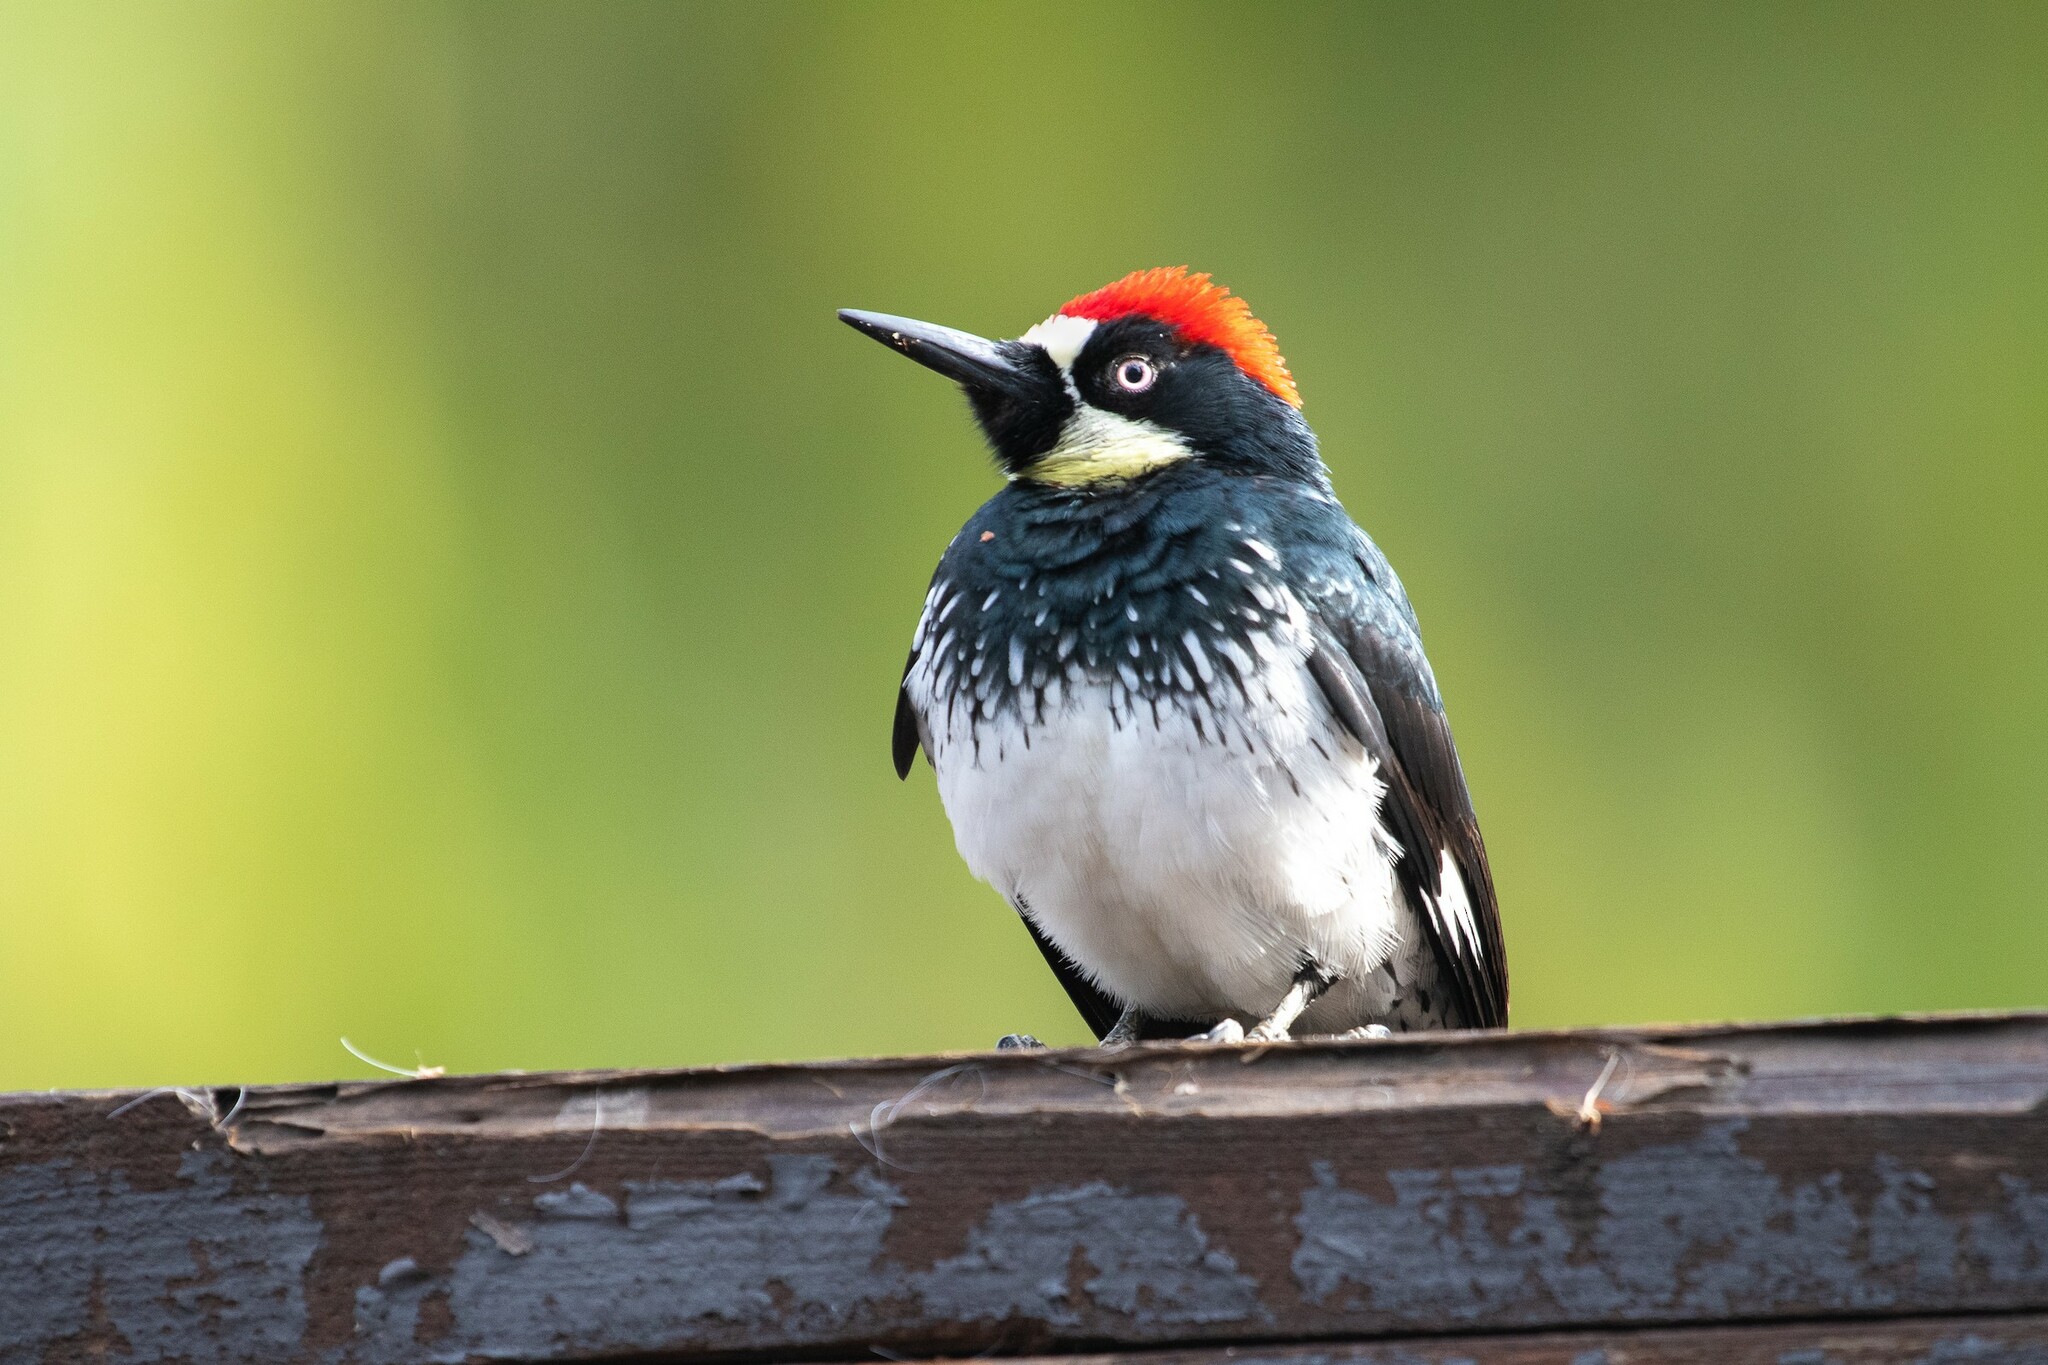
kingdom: Animalia
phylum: Chordata
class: Aves
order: Piciformes
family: Picidae
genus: Melanerpes
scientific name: Melanerpes formicivorus
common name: Acorn woodpecker
